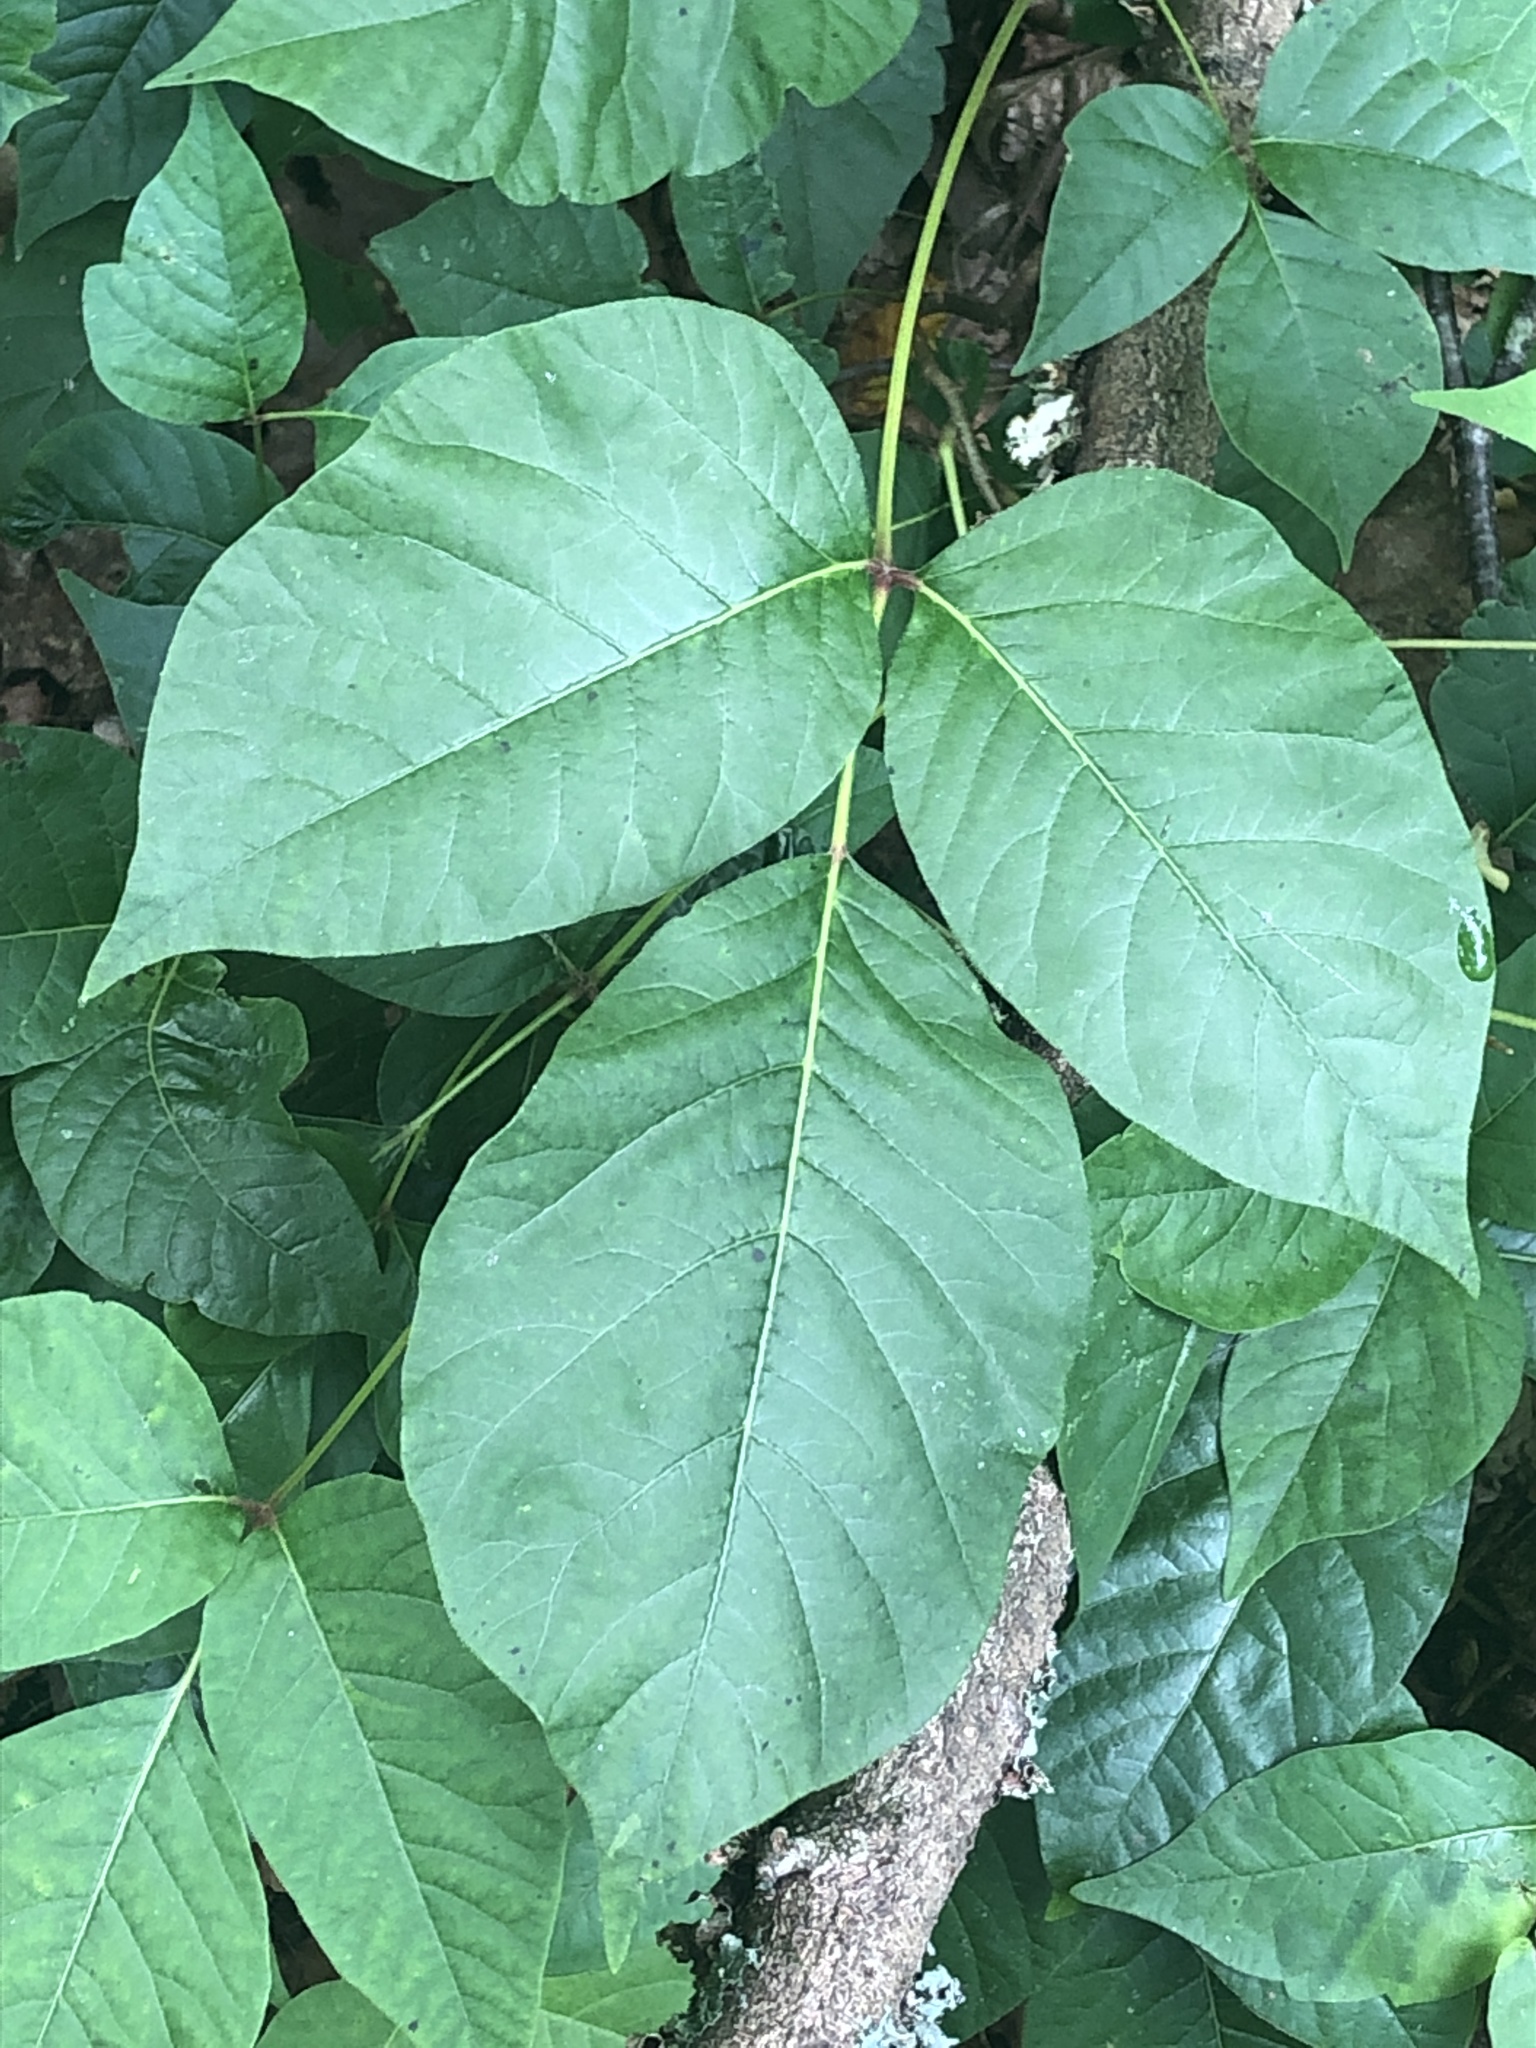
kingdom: Plantae
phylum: Tracheophyta
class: Magnoliopsida
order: Sapindales
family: Anacardiaceae
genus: Toxicodendron
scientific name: Toxicodendron radicans
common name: Poison ivy
